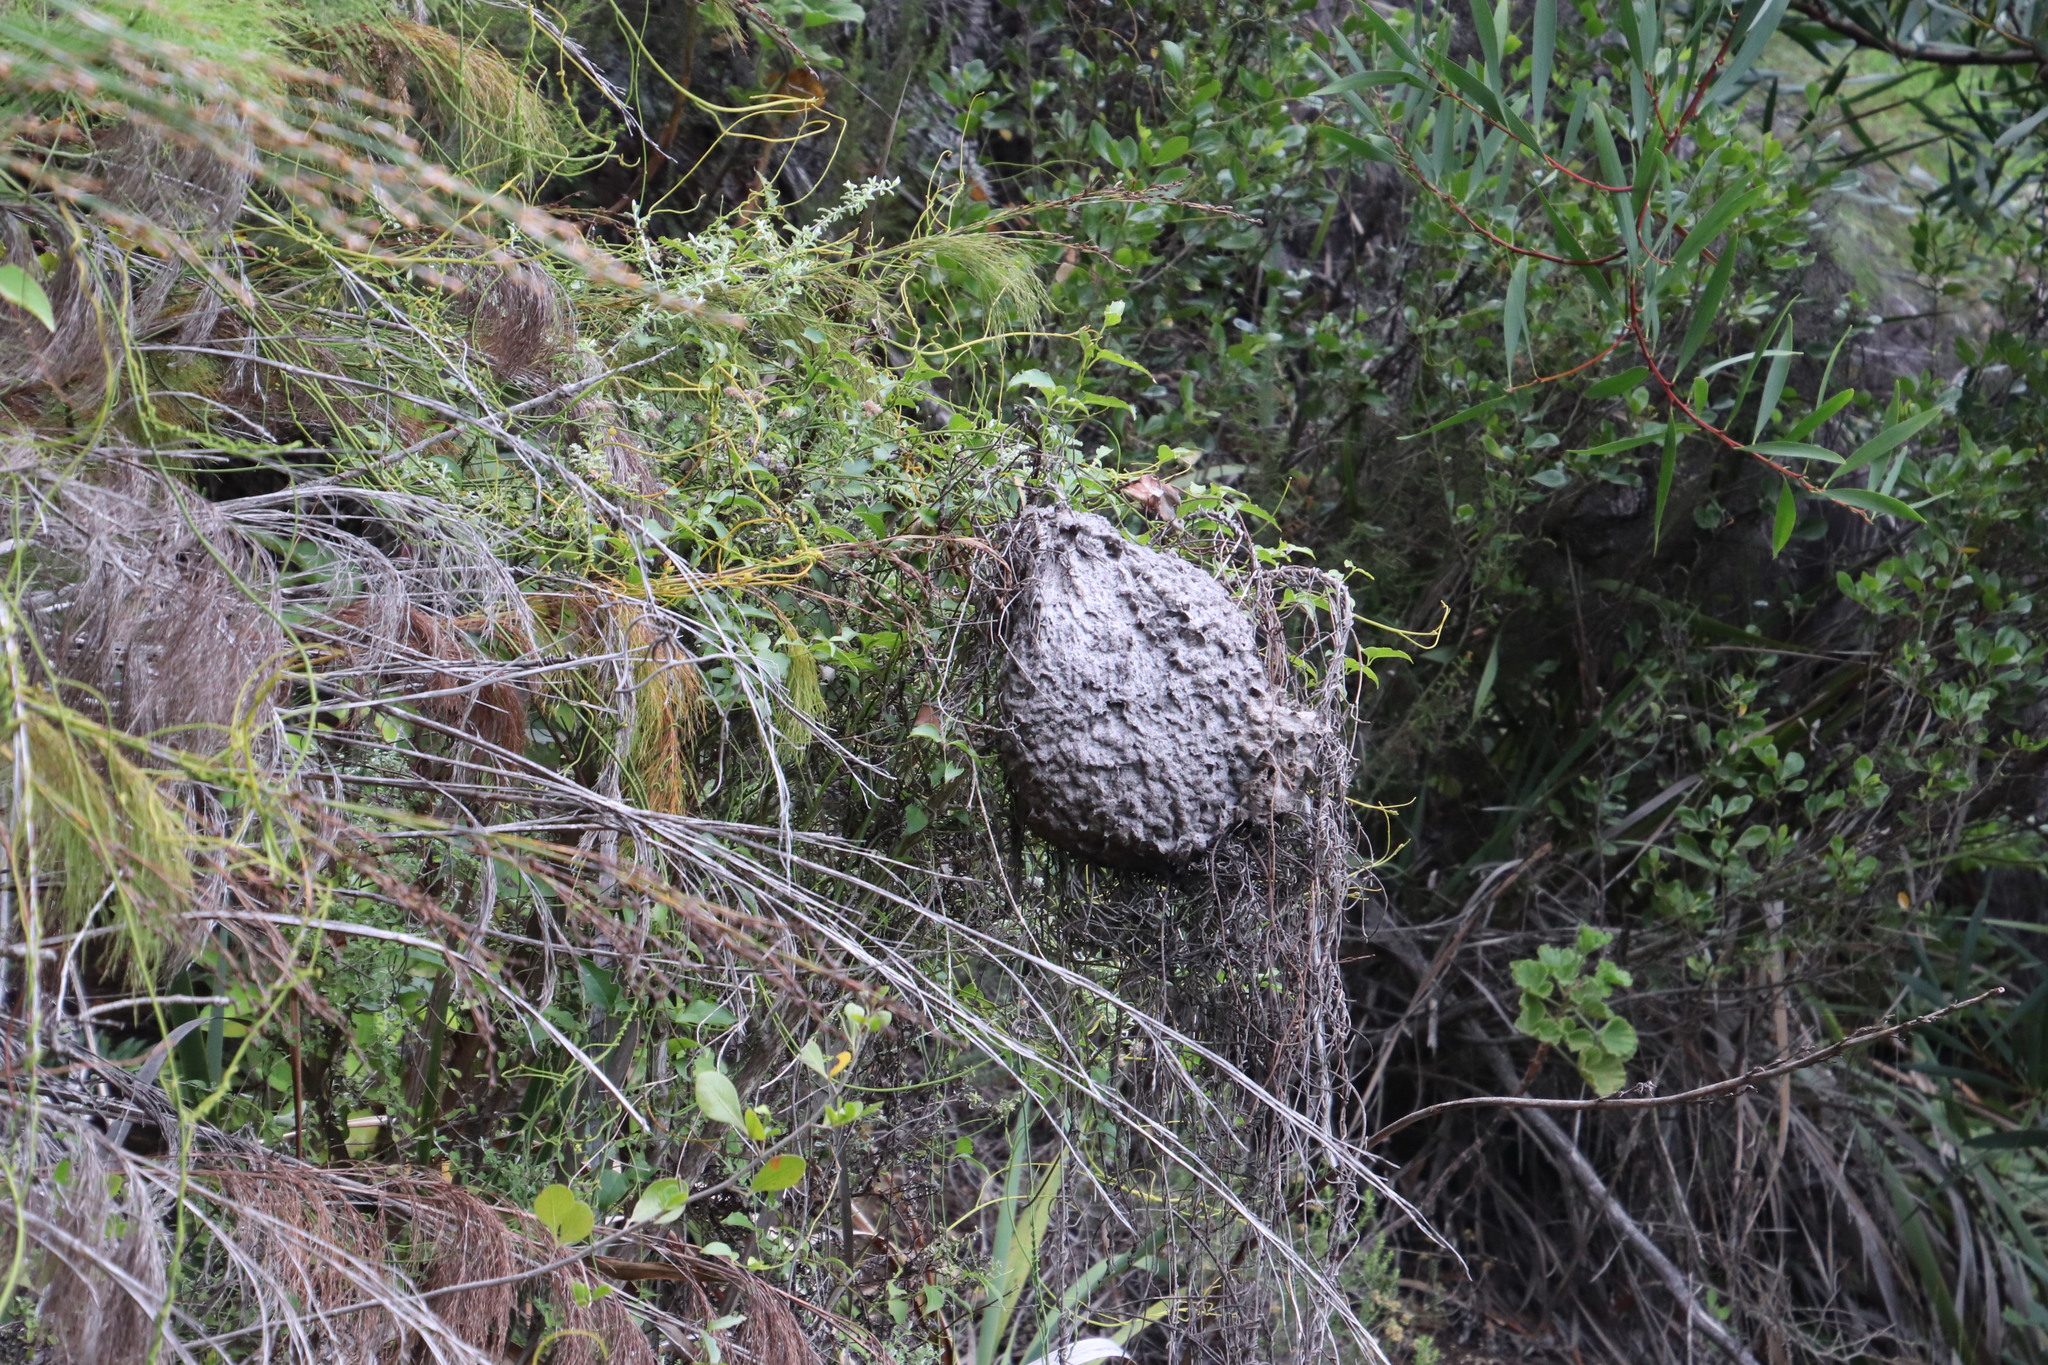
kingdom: Animalia
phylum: Arthropoda
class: Insecta
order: Hymenoptera
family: Formicidae
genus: Crematogaster
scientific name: Crematogaster peringueyi
